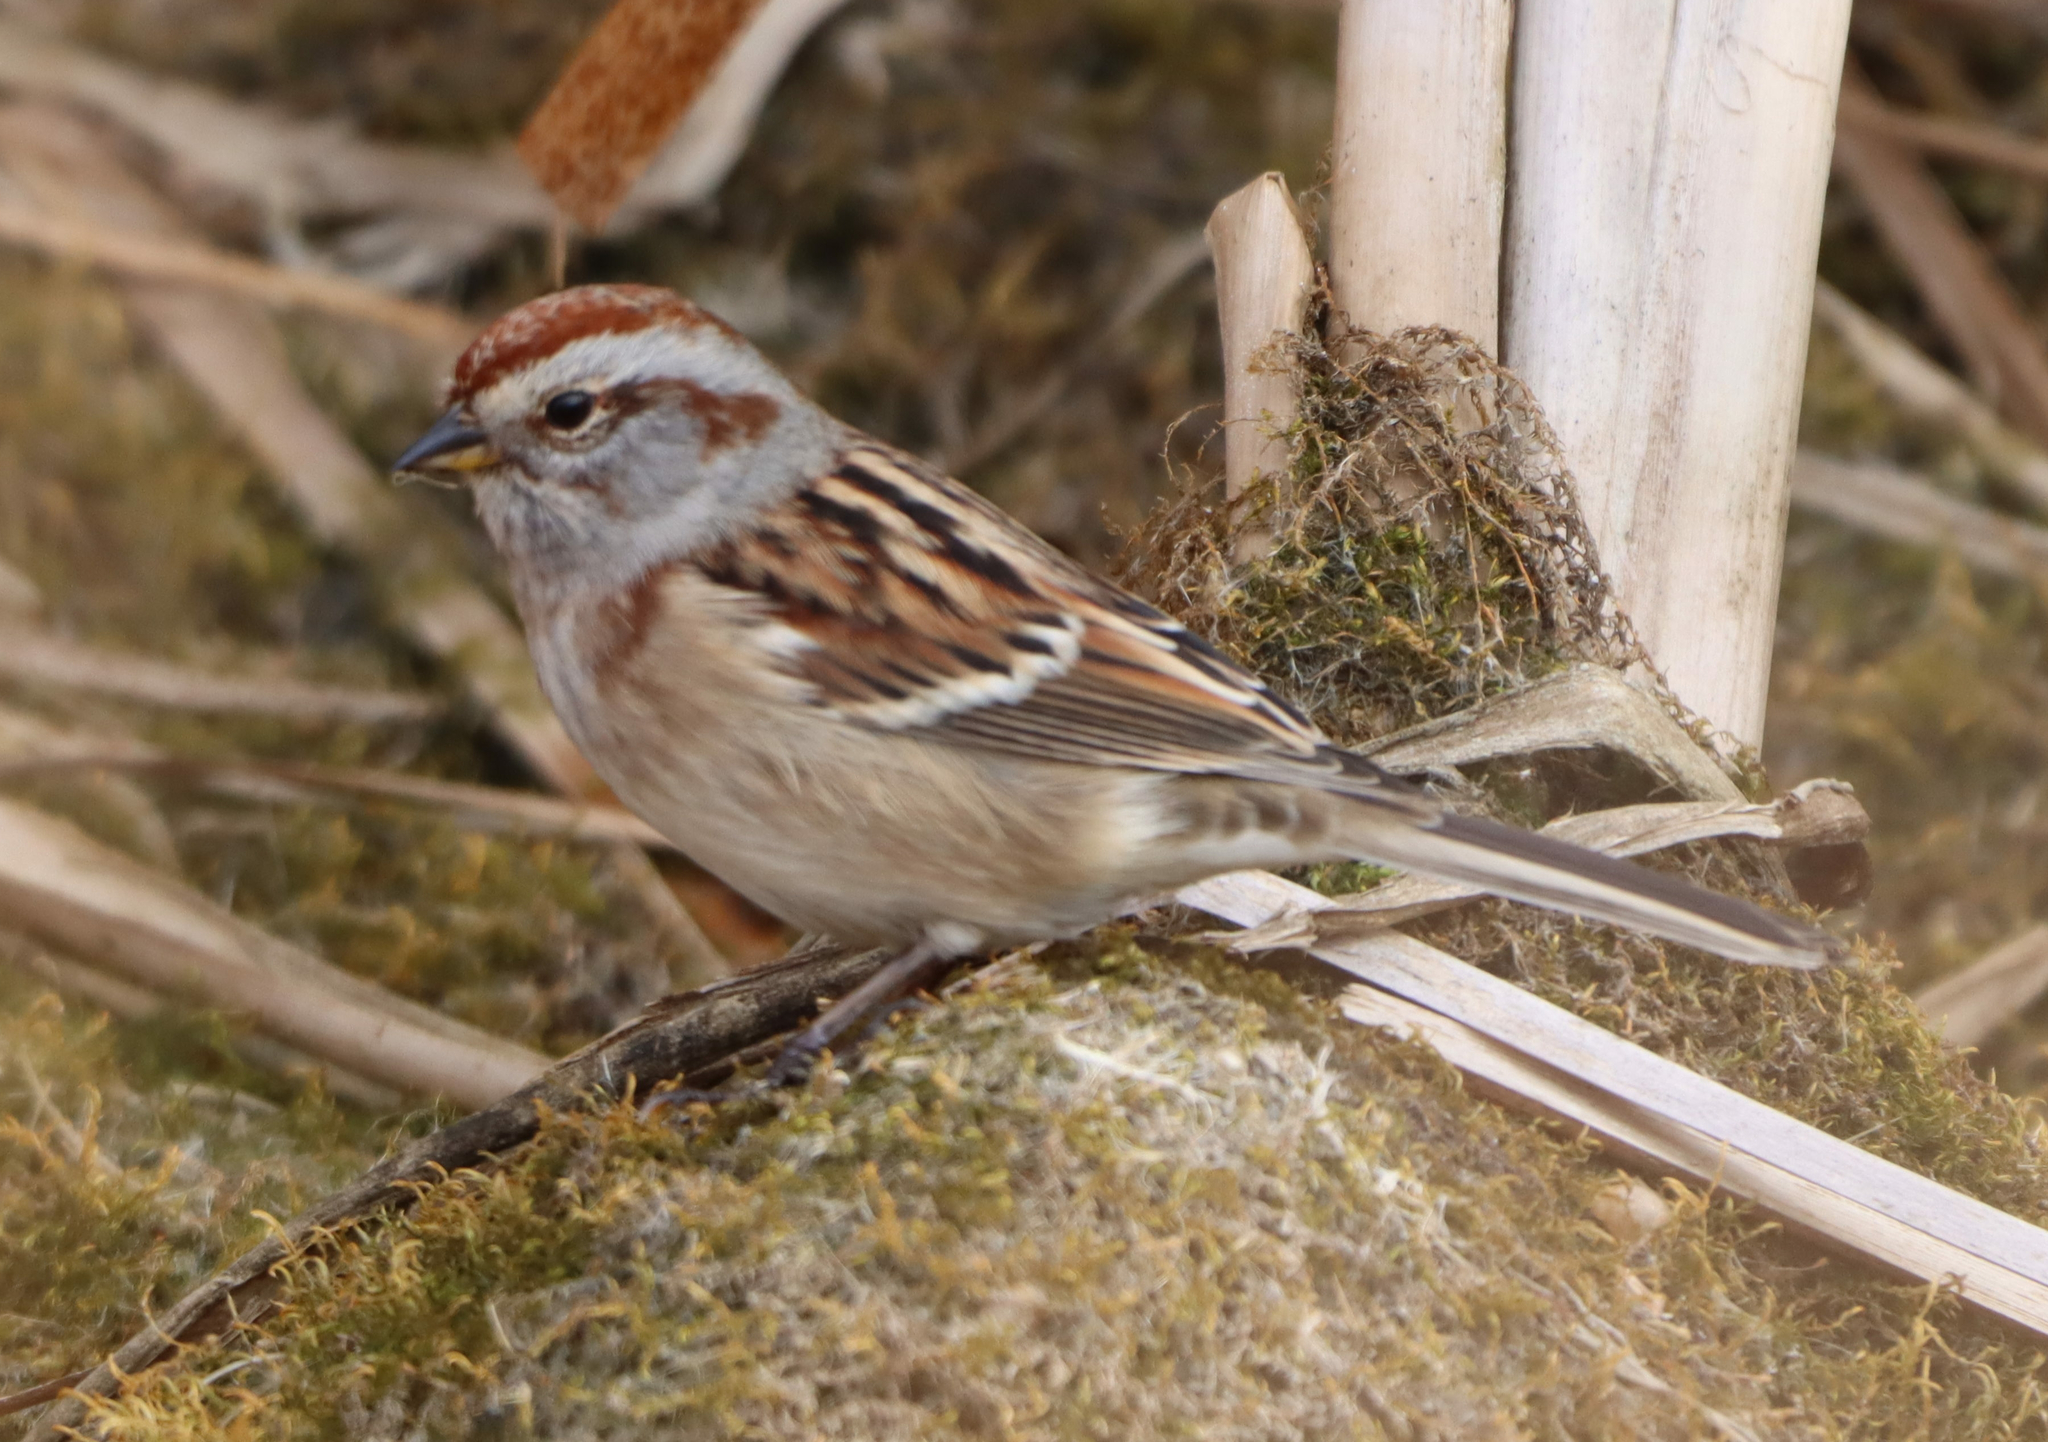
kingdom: Animalia
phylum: Chordata
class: Aves
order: Passeriformes
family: Passerellidae
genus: Spizelloides
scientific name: Spizelloides arborea
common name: American tree sparrow
